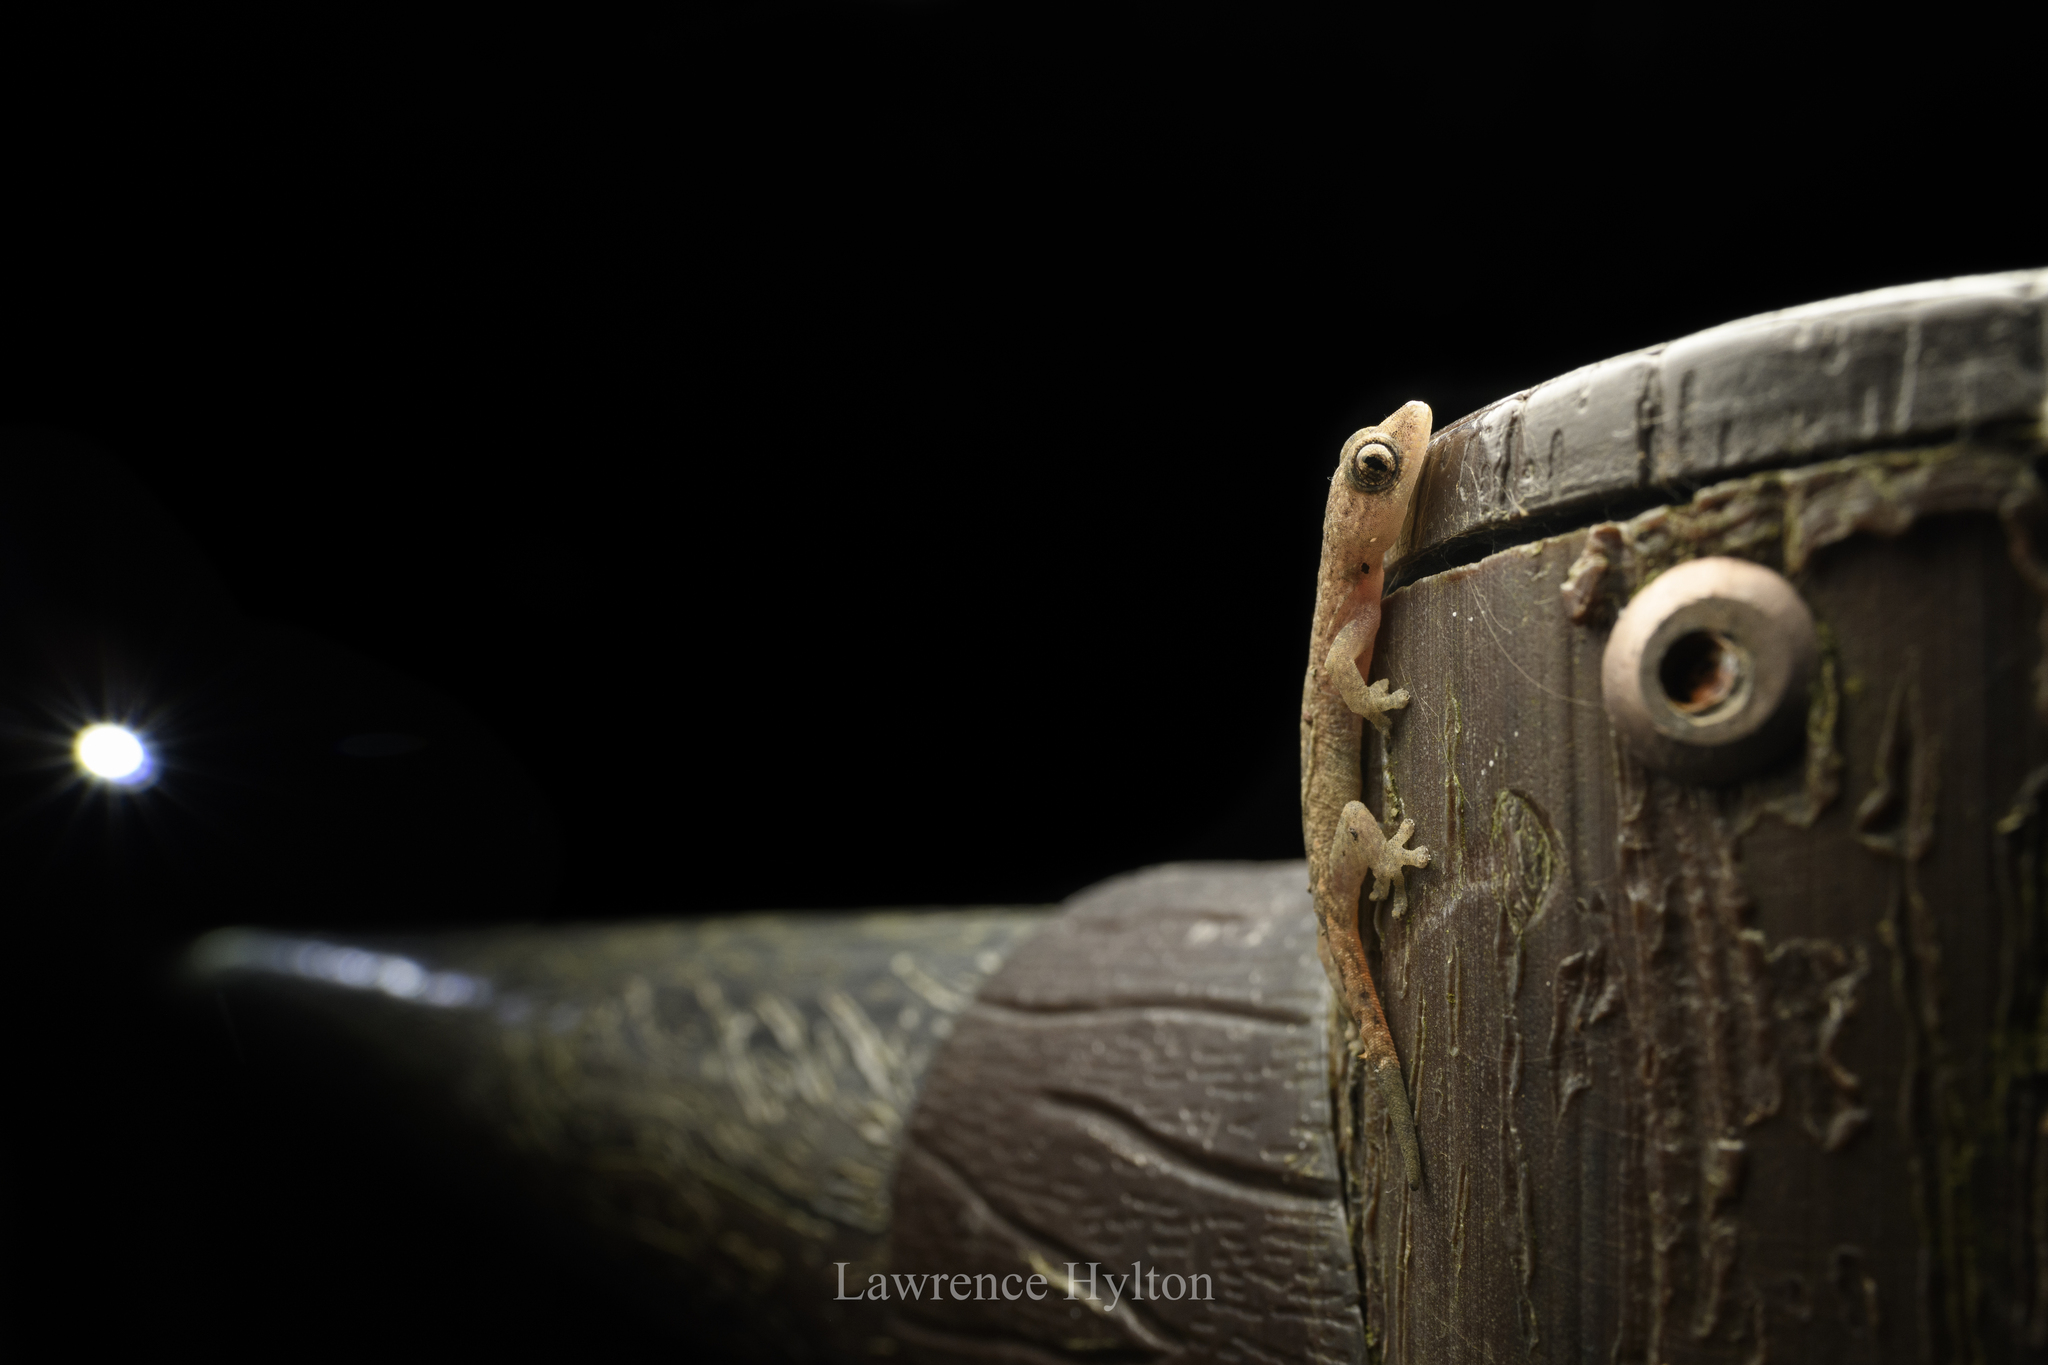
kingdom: Animalia
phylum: Chordata
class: Squamata
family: Gekkonidae
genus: Hemiphyllodactylus
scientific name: Hemiphyllodactylus hongkongensis
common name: Hong kong slender gecko
